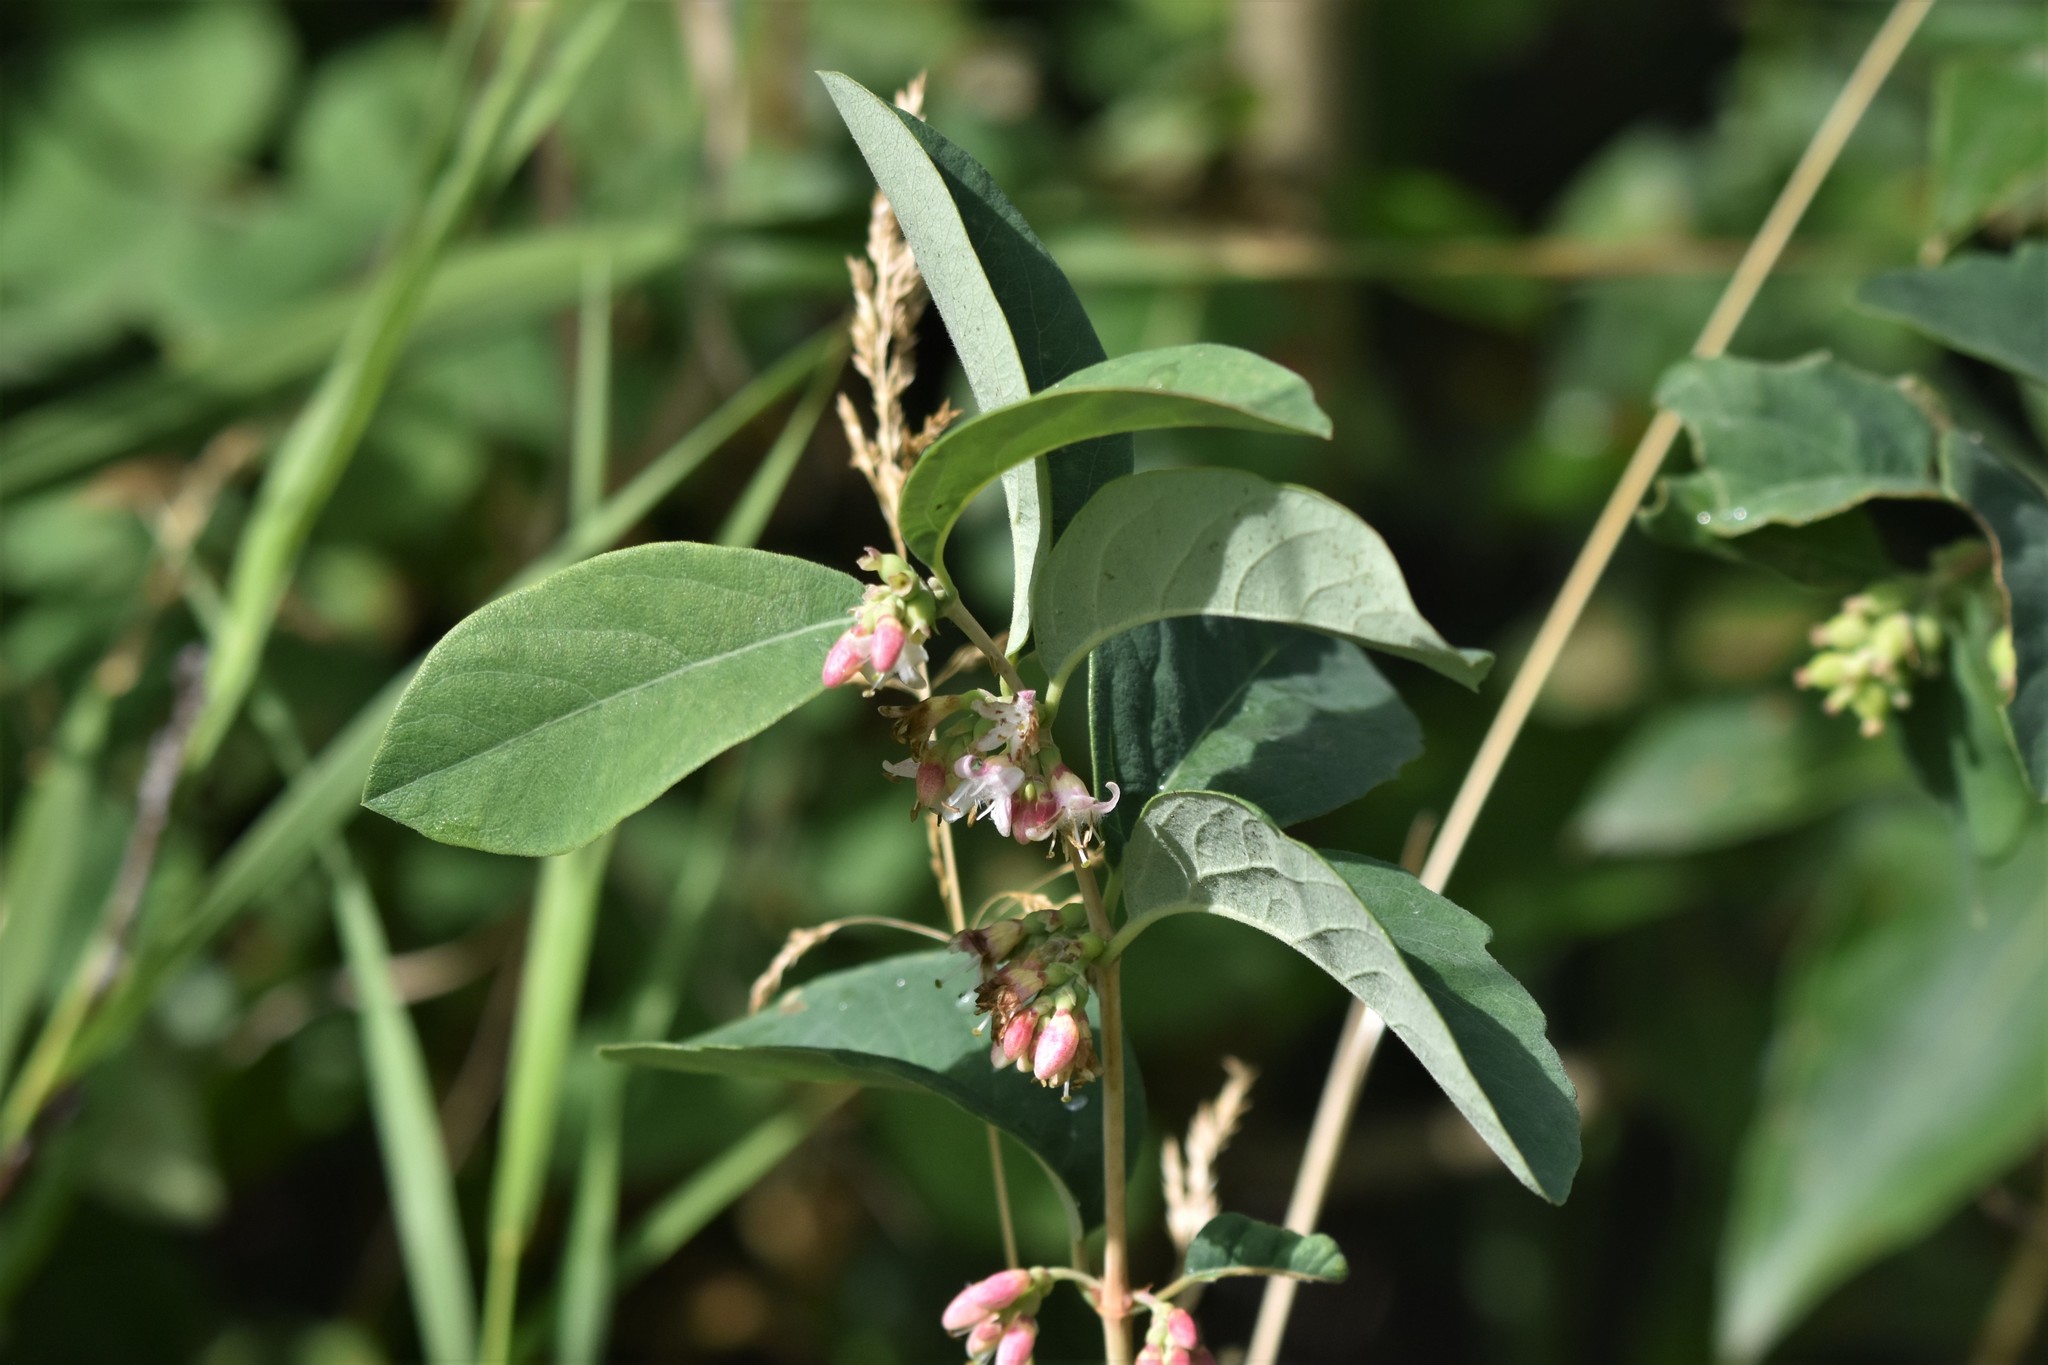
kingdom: Plantae
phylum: Tracheophyta
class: Magnoliopsida
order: Dipsacales
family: Caprifoliaceae
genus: Symphoricarpos
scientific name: Symphoricarpos occidentalis
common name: Wolfberry
